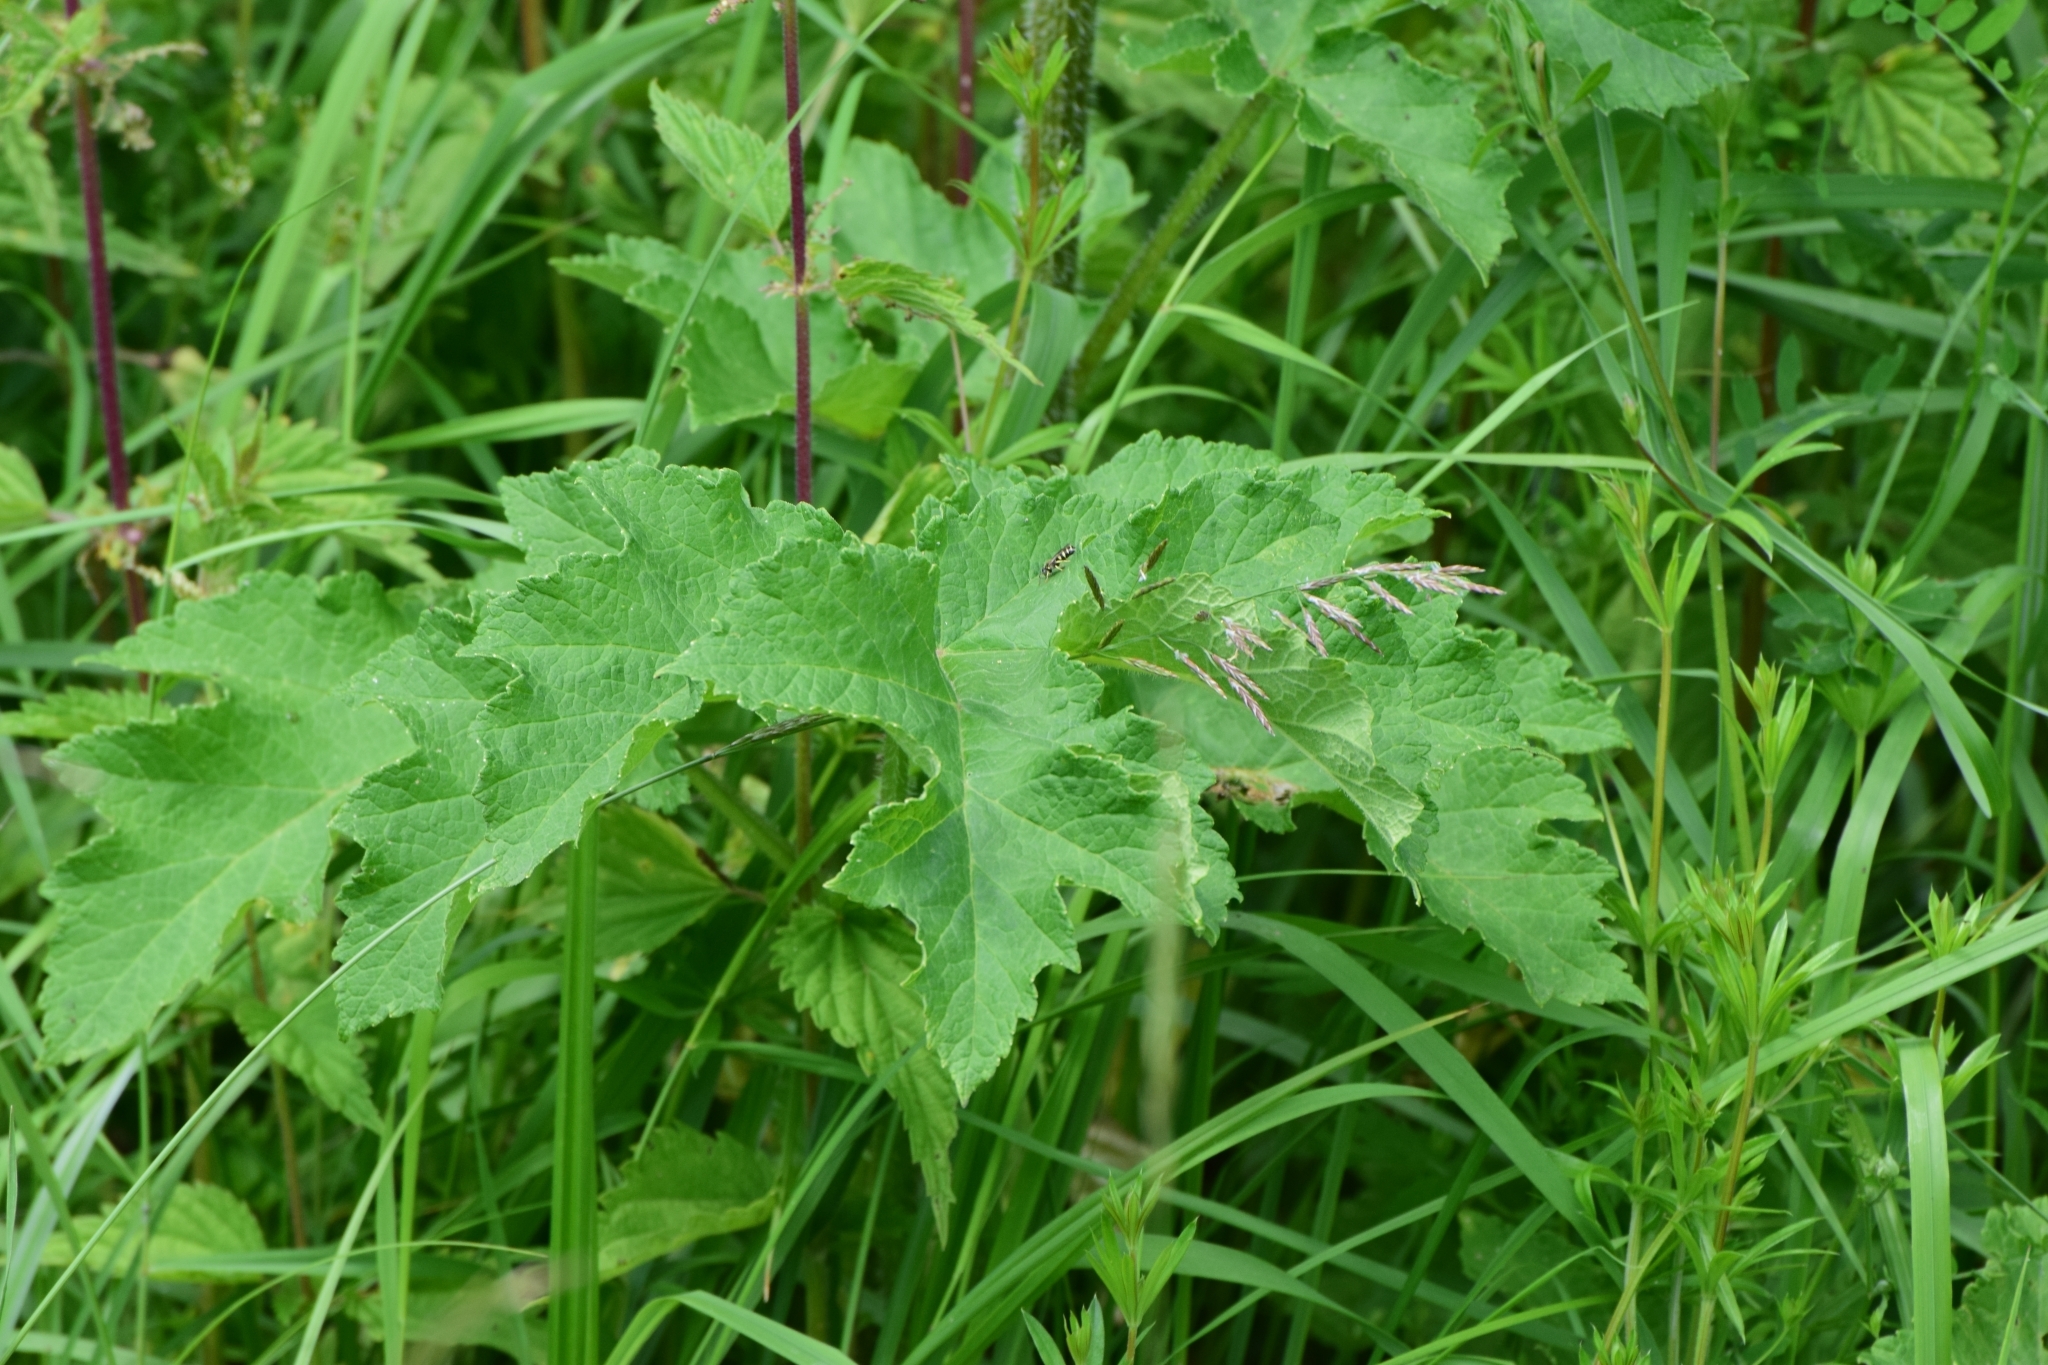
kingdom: Plantae
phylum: Tracheophyta
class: Magnoliopsida
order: Apiales
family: Apiaceae
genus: Heracleum
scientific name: Heracleum sphondylium
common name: Hogweed
